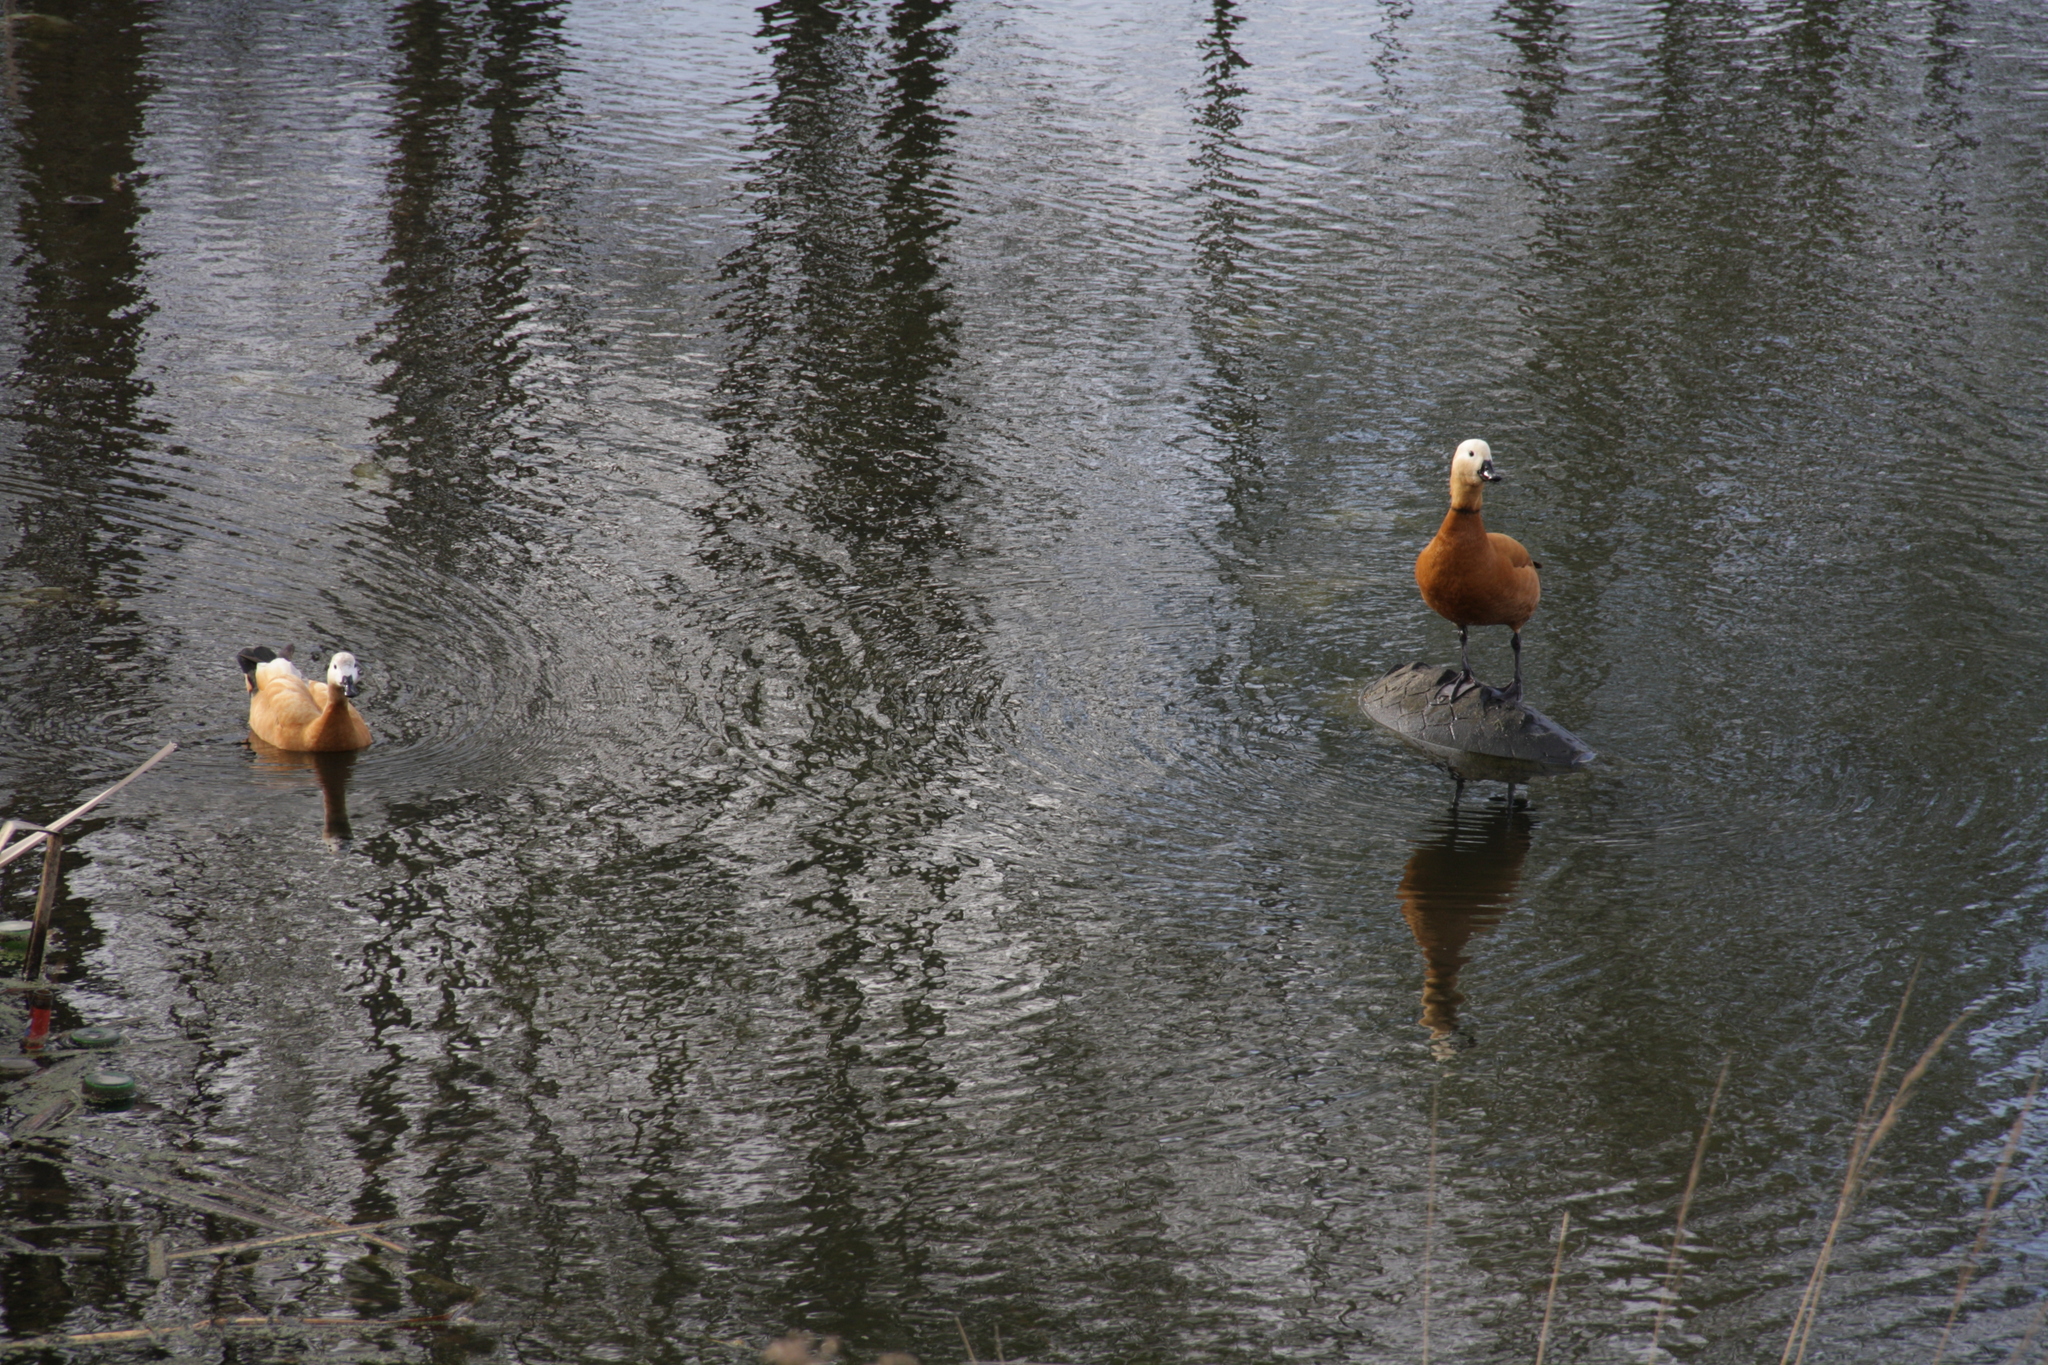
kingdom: Animalia
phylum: Chordata
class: Aves
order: Anseriformes
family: Anatidae
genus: Tadorna
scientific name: Tadorna ferruginea
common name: Ruddy shelduck
